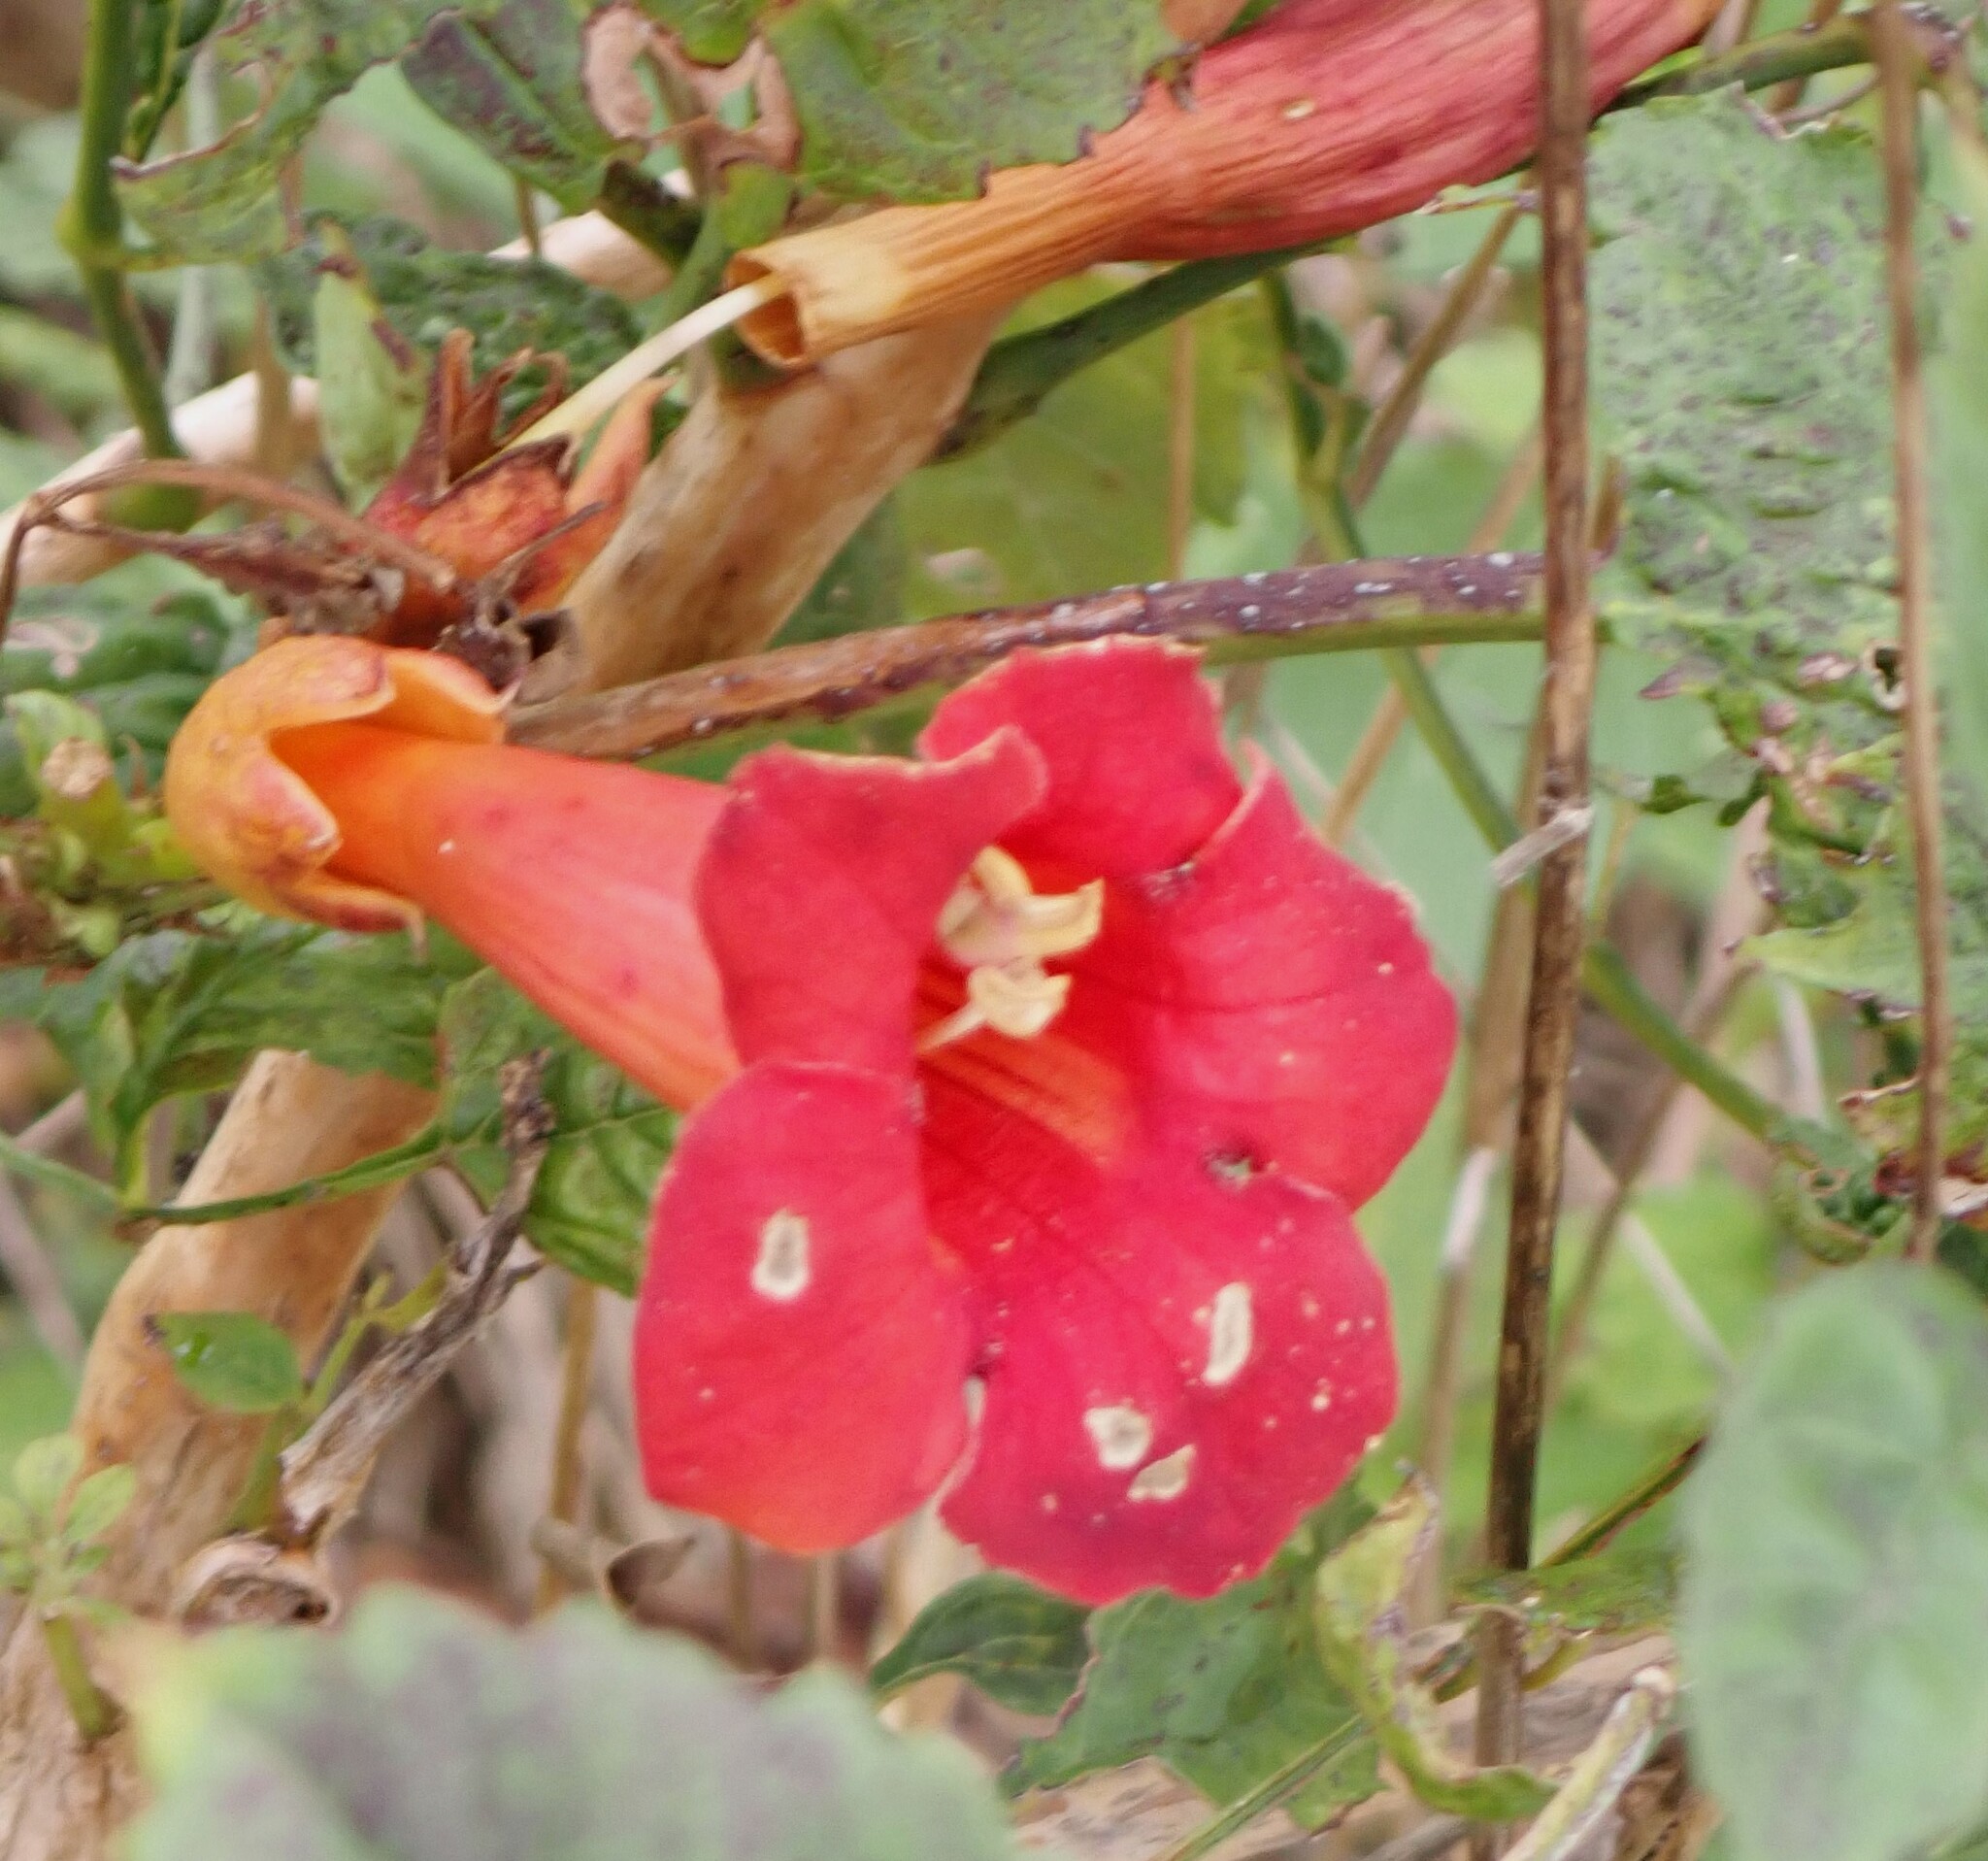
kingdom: Plantae
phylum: Tracheophyta
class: Magnoliopsida
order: Lamiales
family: Bignoniaceae
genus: Campsis
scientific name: Campsis radicans
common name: Trumpet-creeper
